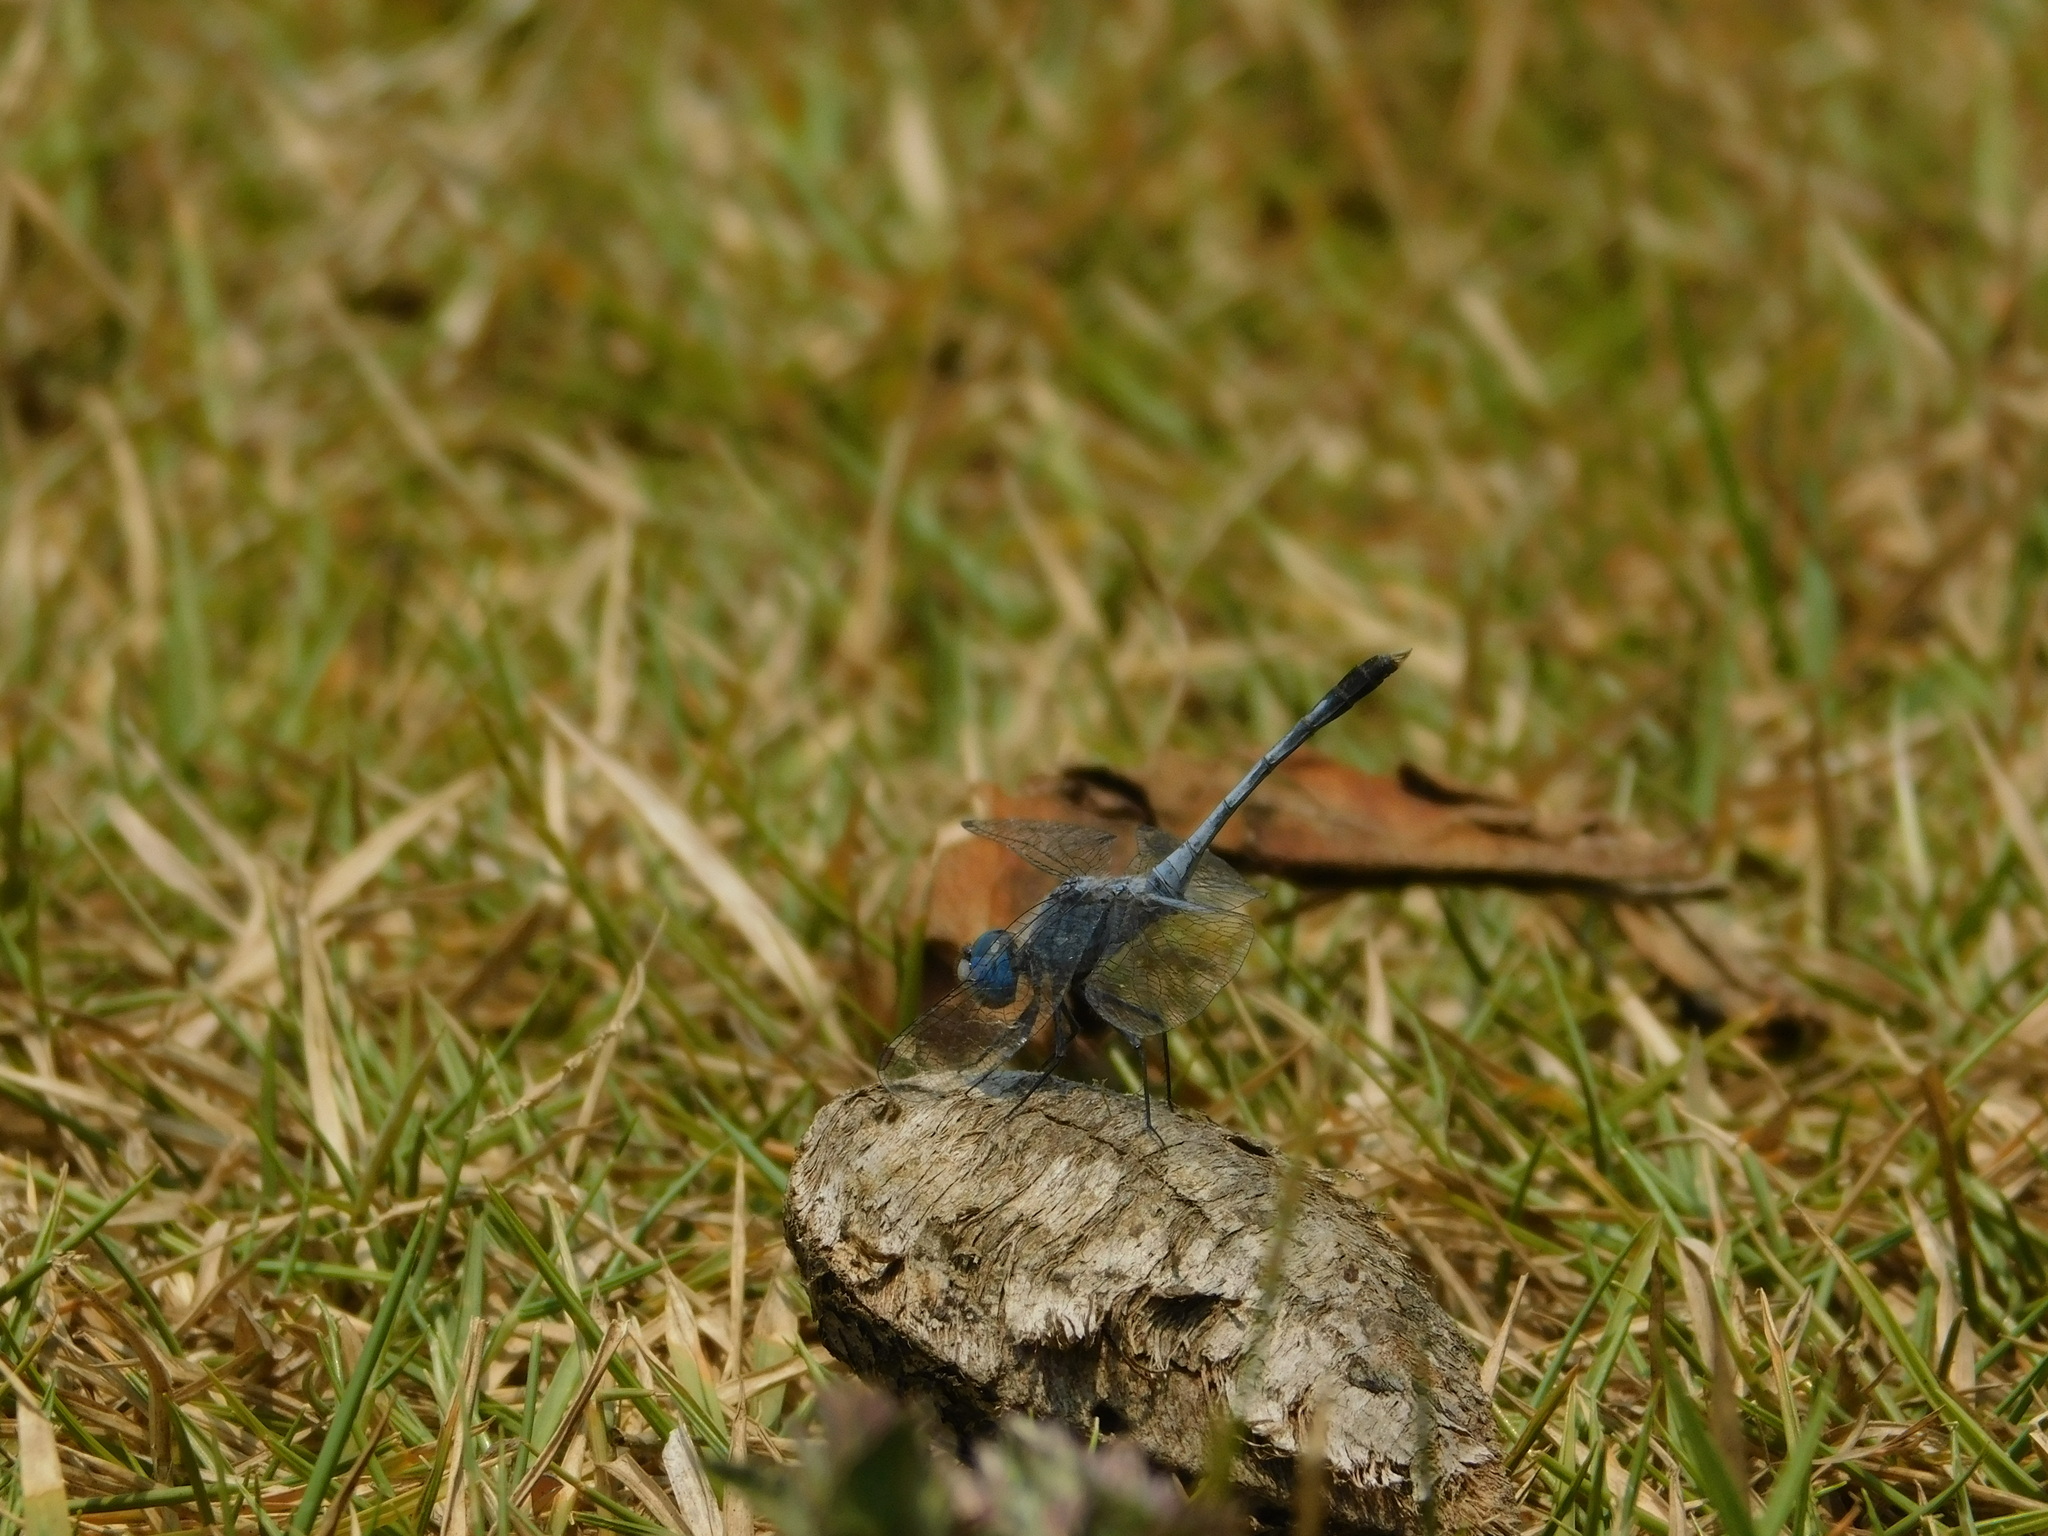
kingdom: Animalia
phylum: Arthropoda
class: Insecta
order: Odonata
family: Libellulidae
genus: Diplacodes
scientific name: Diplacodes trivialis
